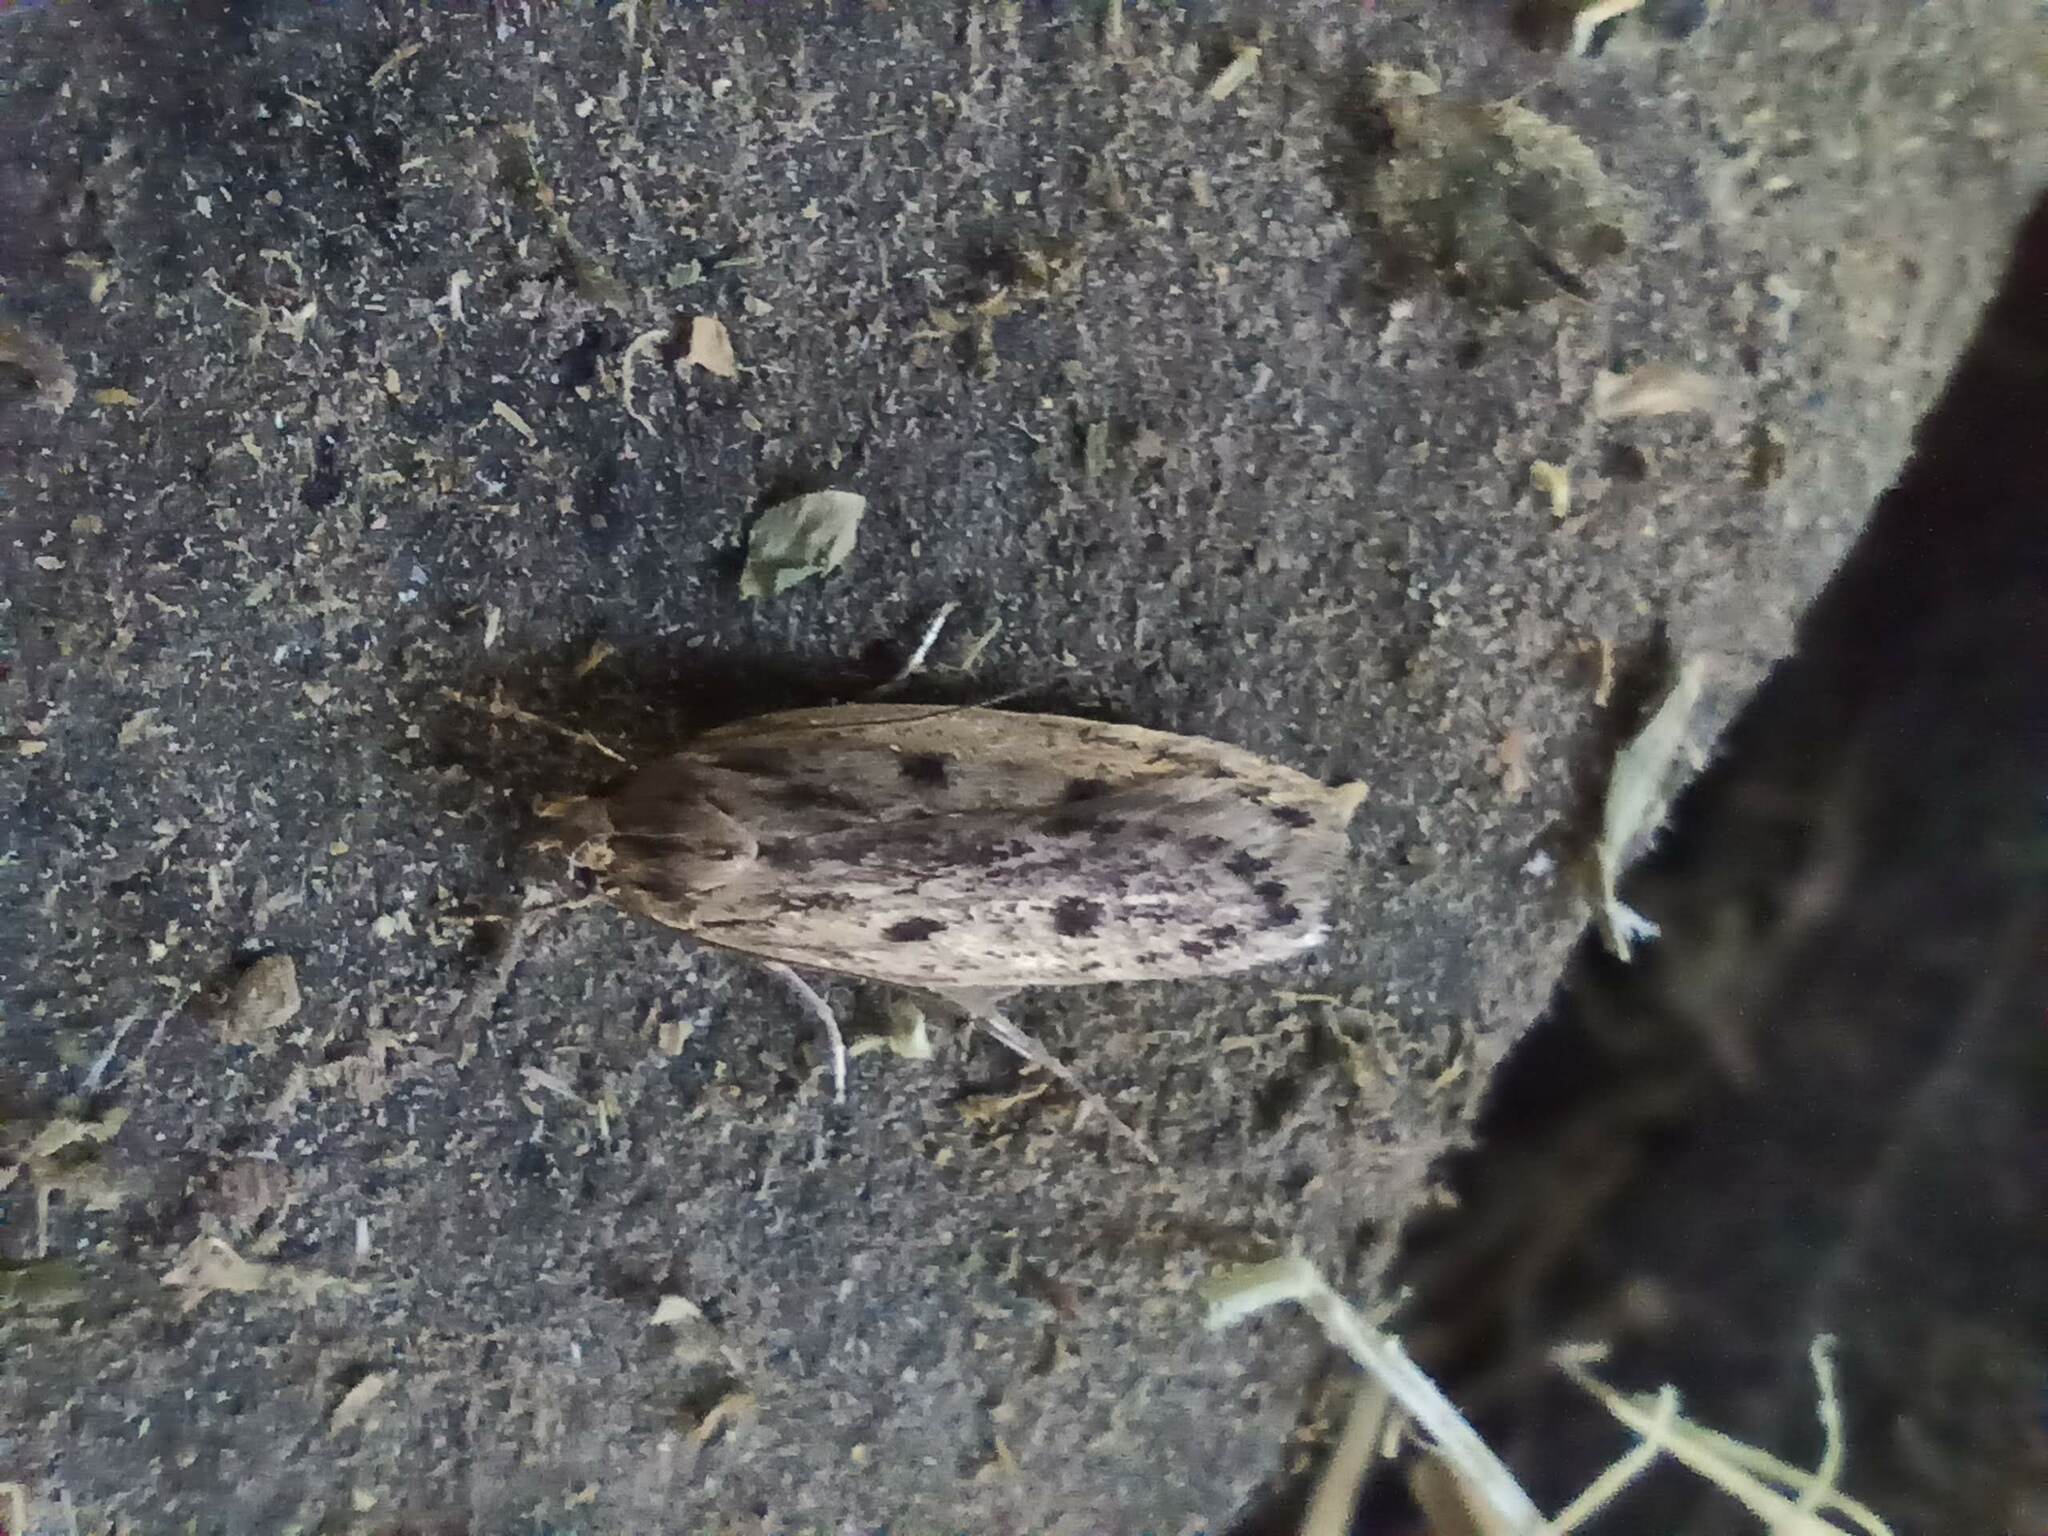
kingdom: Animalia
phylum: Arthropoda
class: Insecta
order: Lepidoptera
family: Oecophoridae
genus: Hofmannophila
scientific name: Hofmannophila pseudospretella
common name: Brown house moth
